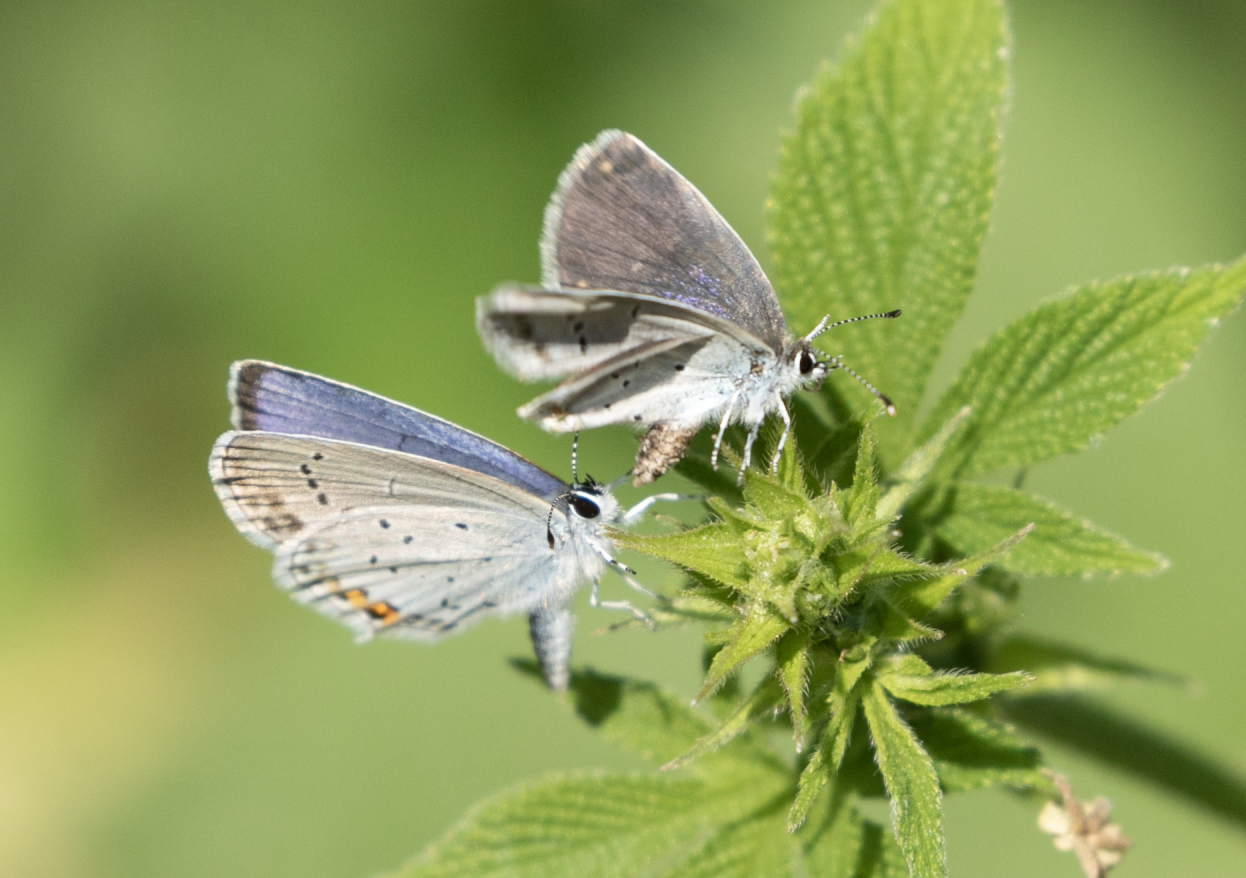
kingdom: Animalia
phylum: Arthropoda
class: Insecta
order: Lepidoptera
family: Lycaenidae
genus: Elkalyce
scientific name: Elkalyce argiades
